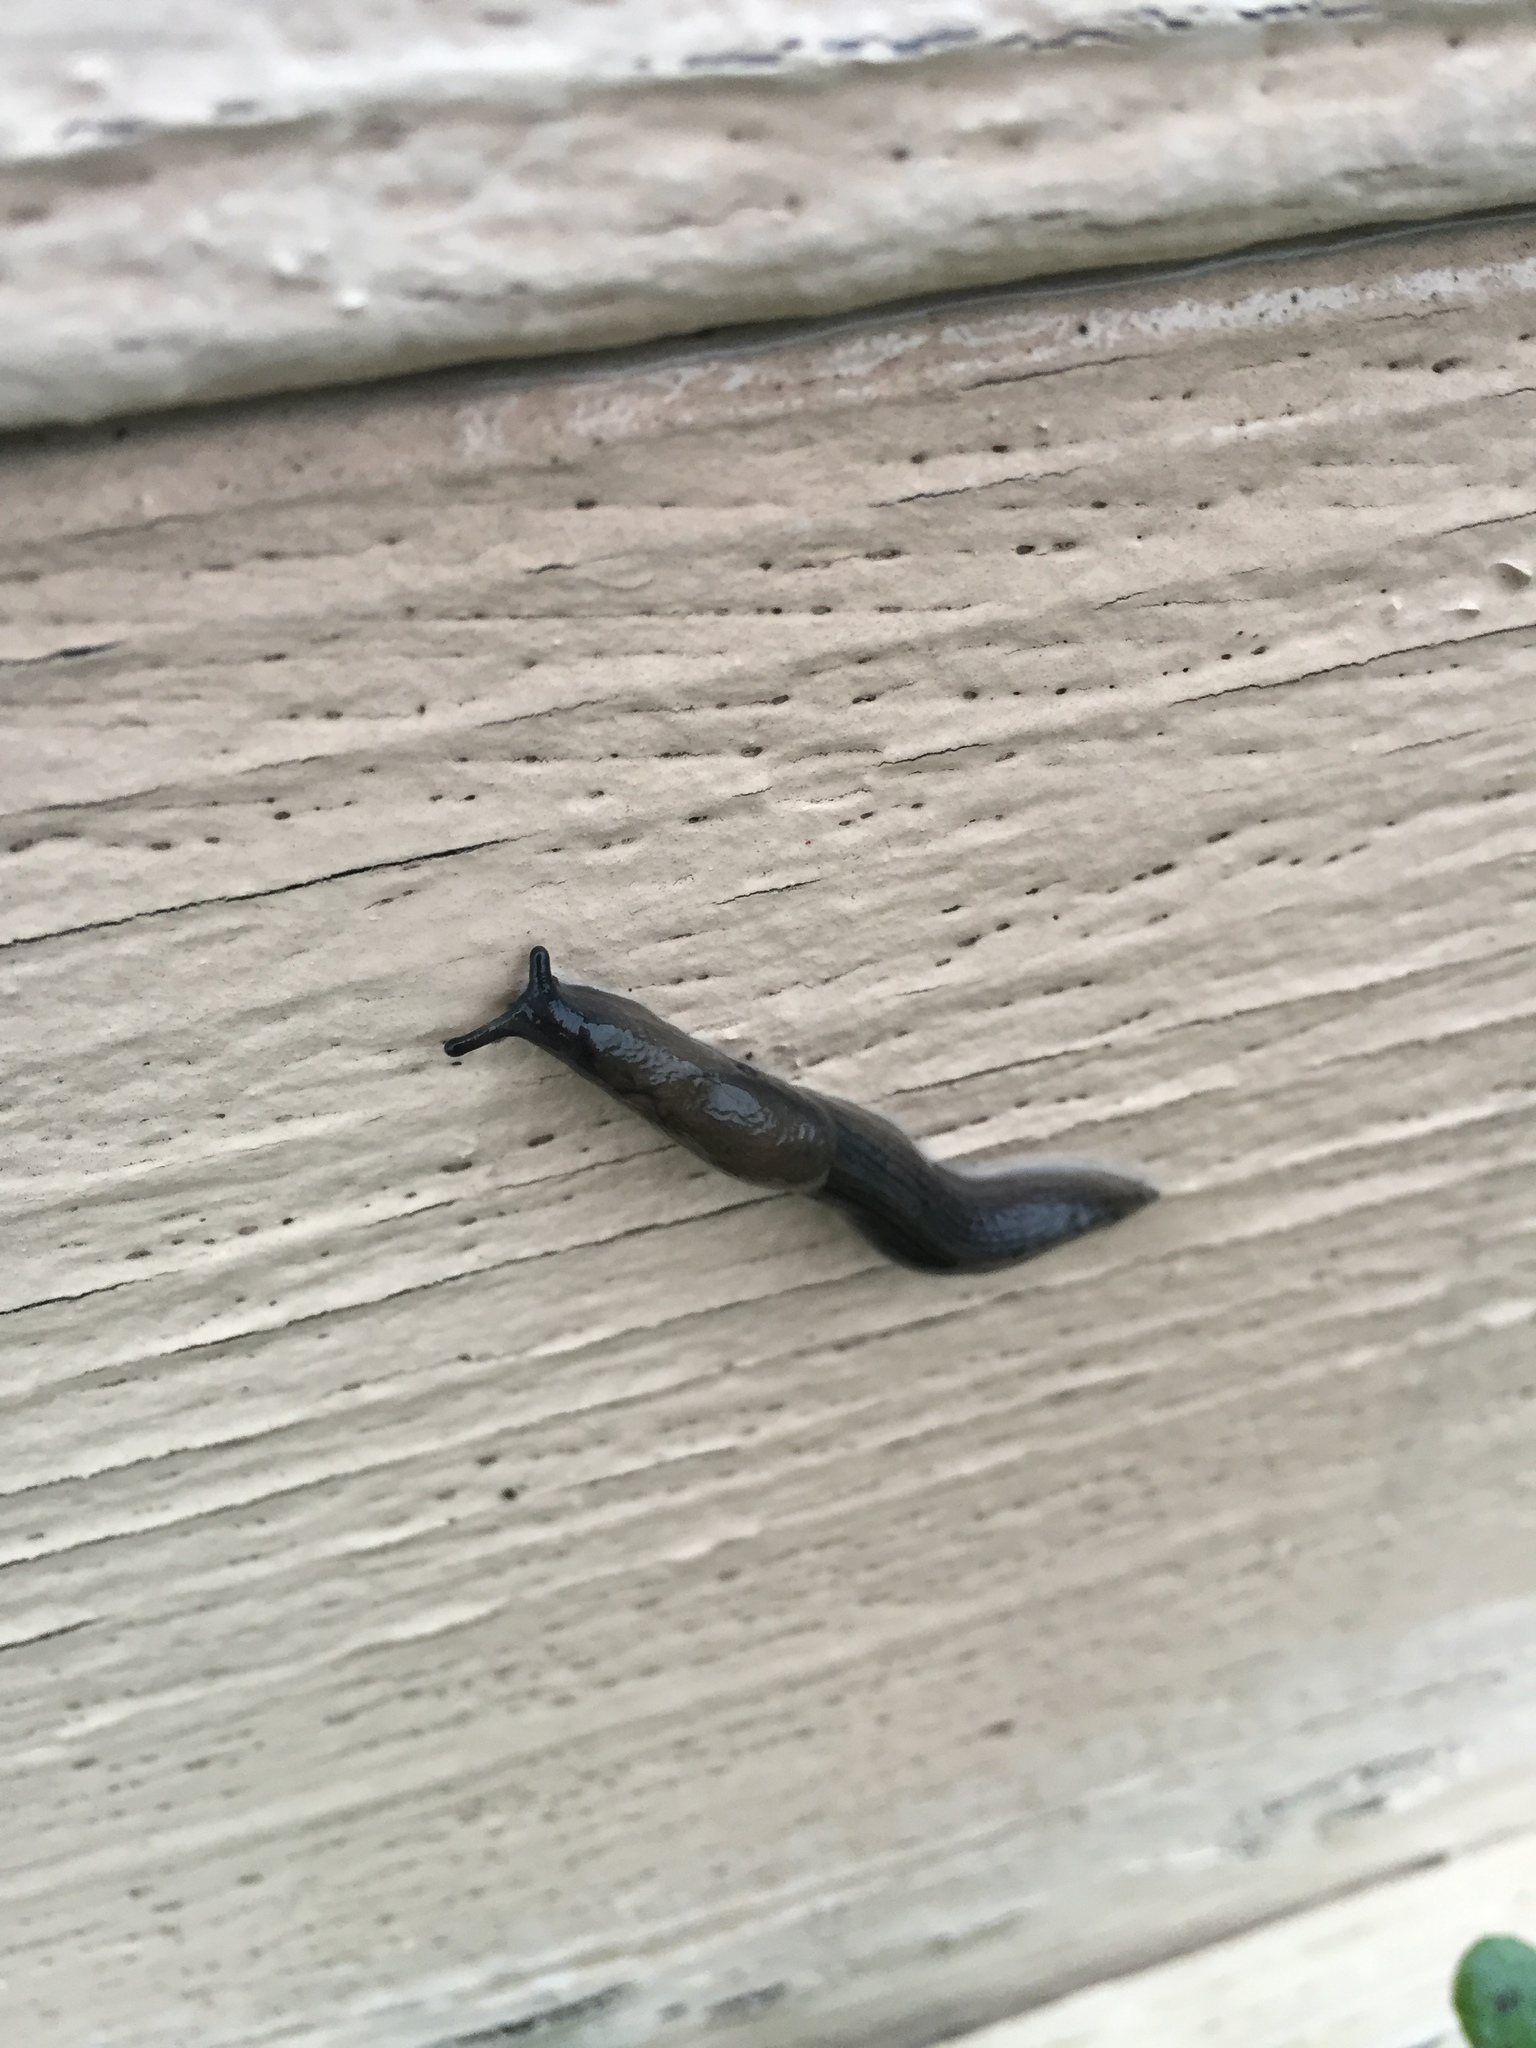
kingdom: Animalia
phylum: Mollusca
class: Gastropoda
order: Stylommatophora
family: Milacidae
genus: Milax
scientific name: Milax gagates
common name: Greenhouse slug
